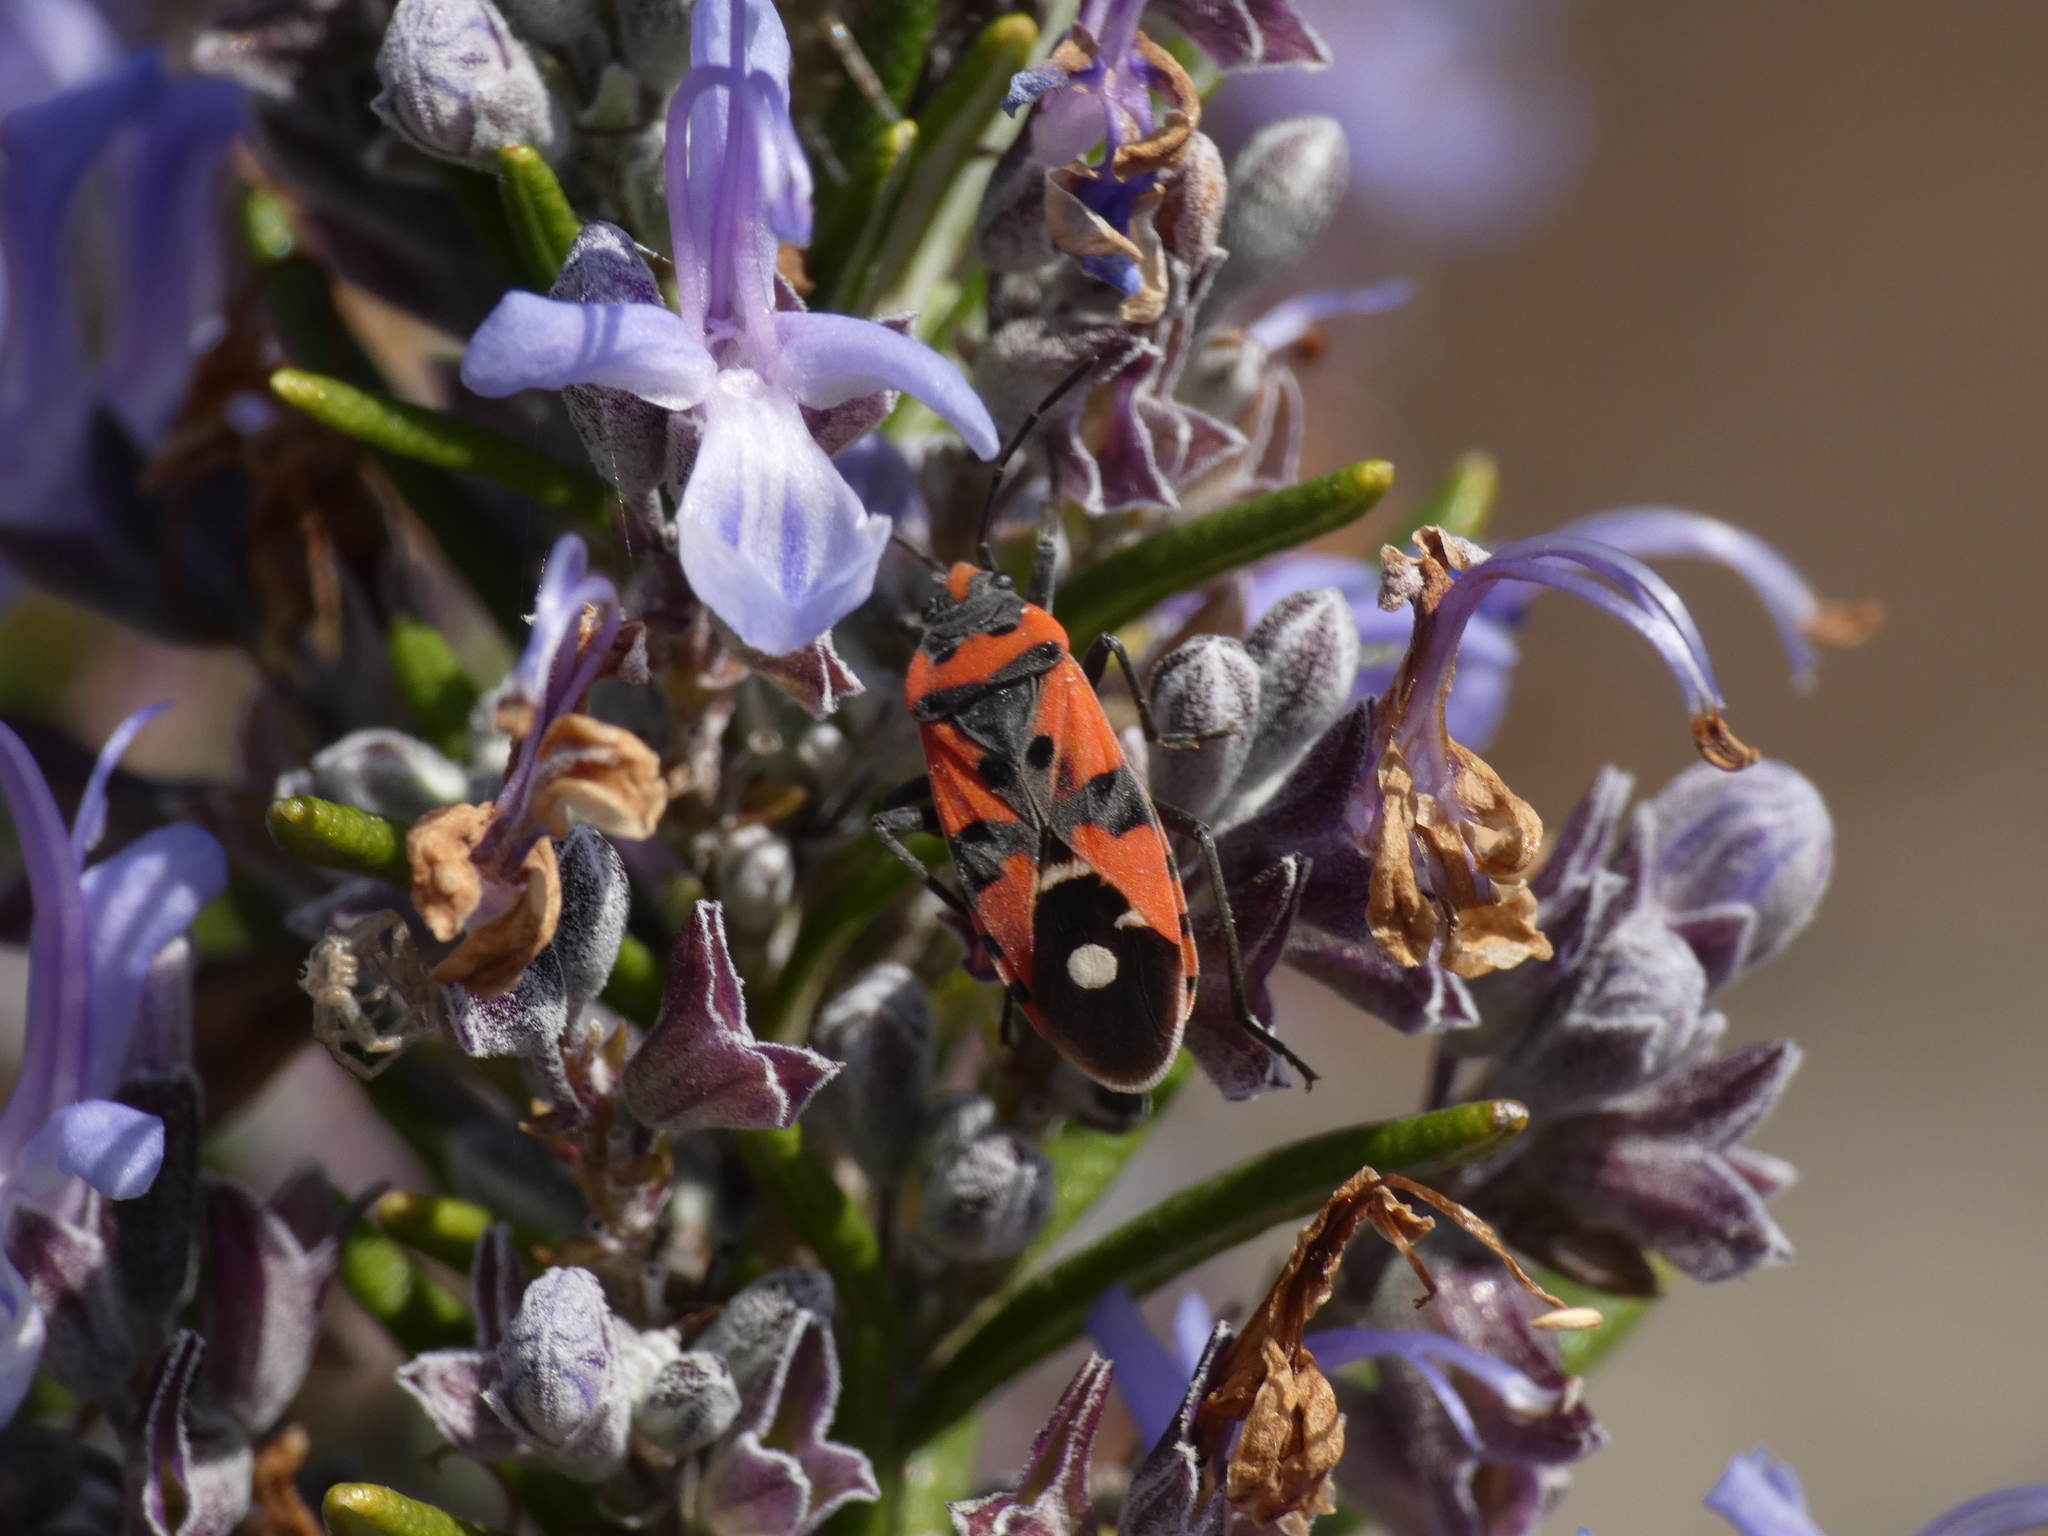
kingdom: Animalia
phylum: Arthropoda
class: Insecta
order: Hemiptera
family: Lygaeidae
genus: Lygaeus
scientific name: Lygaeus equestris
